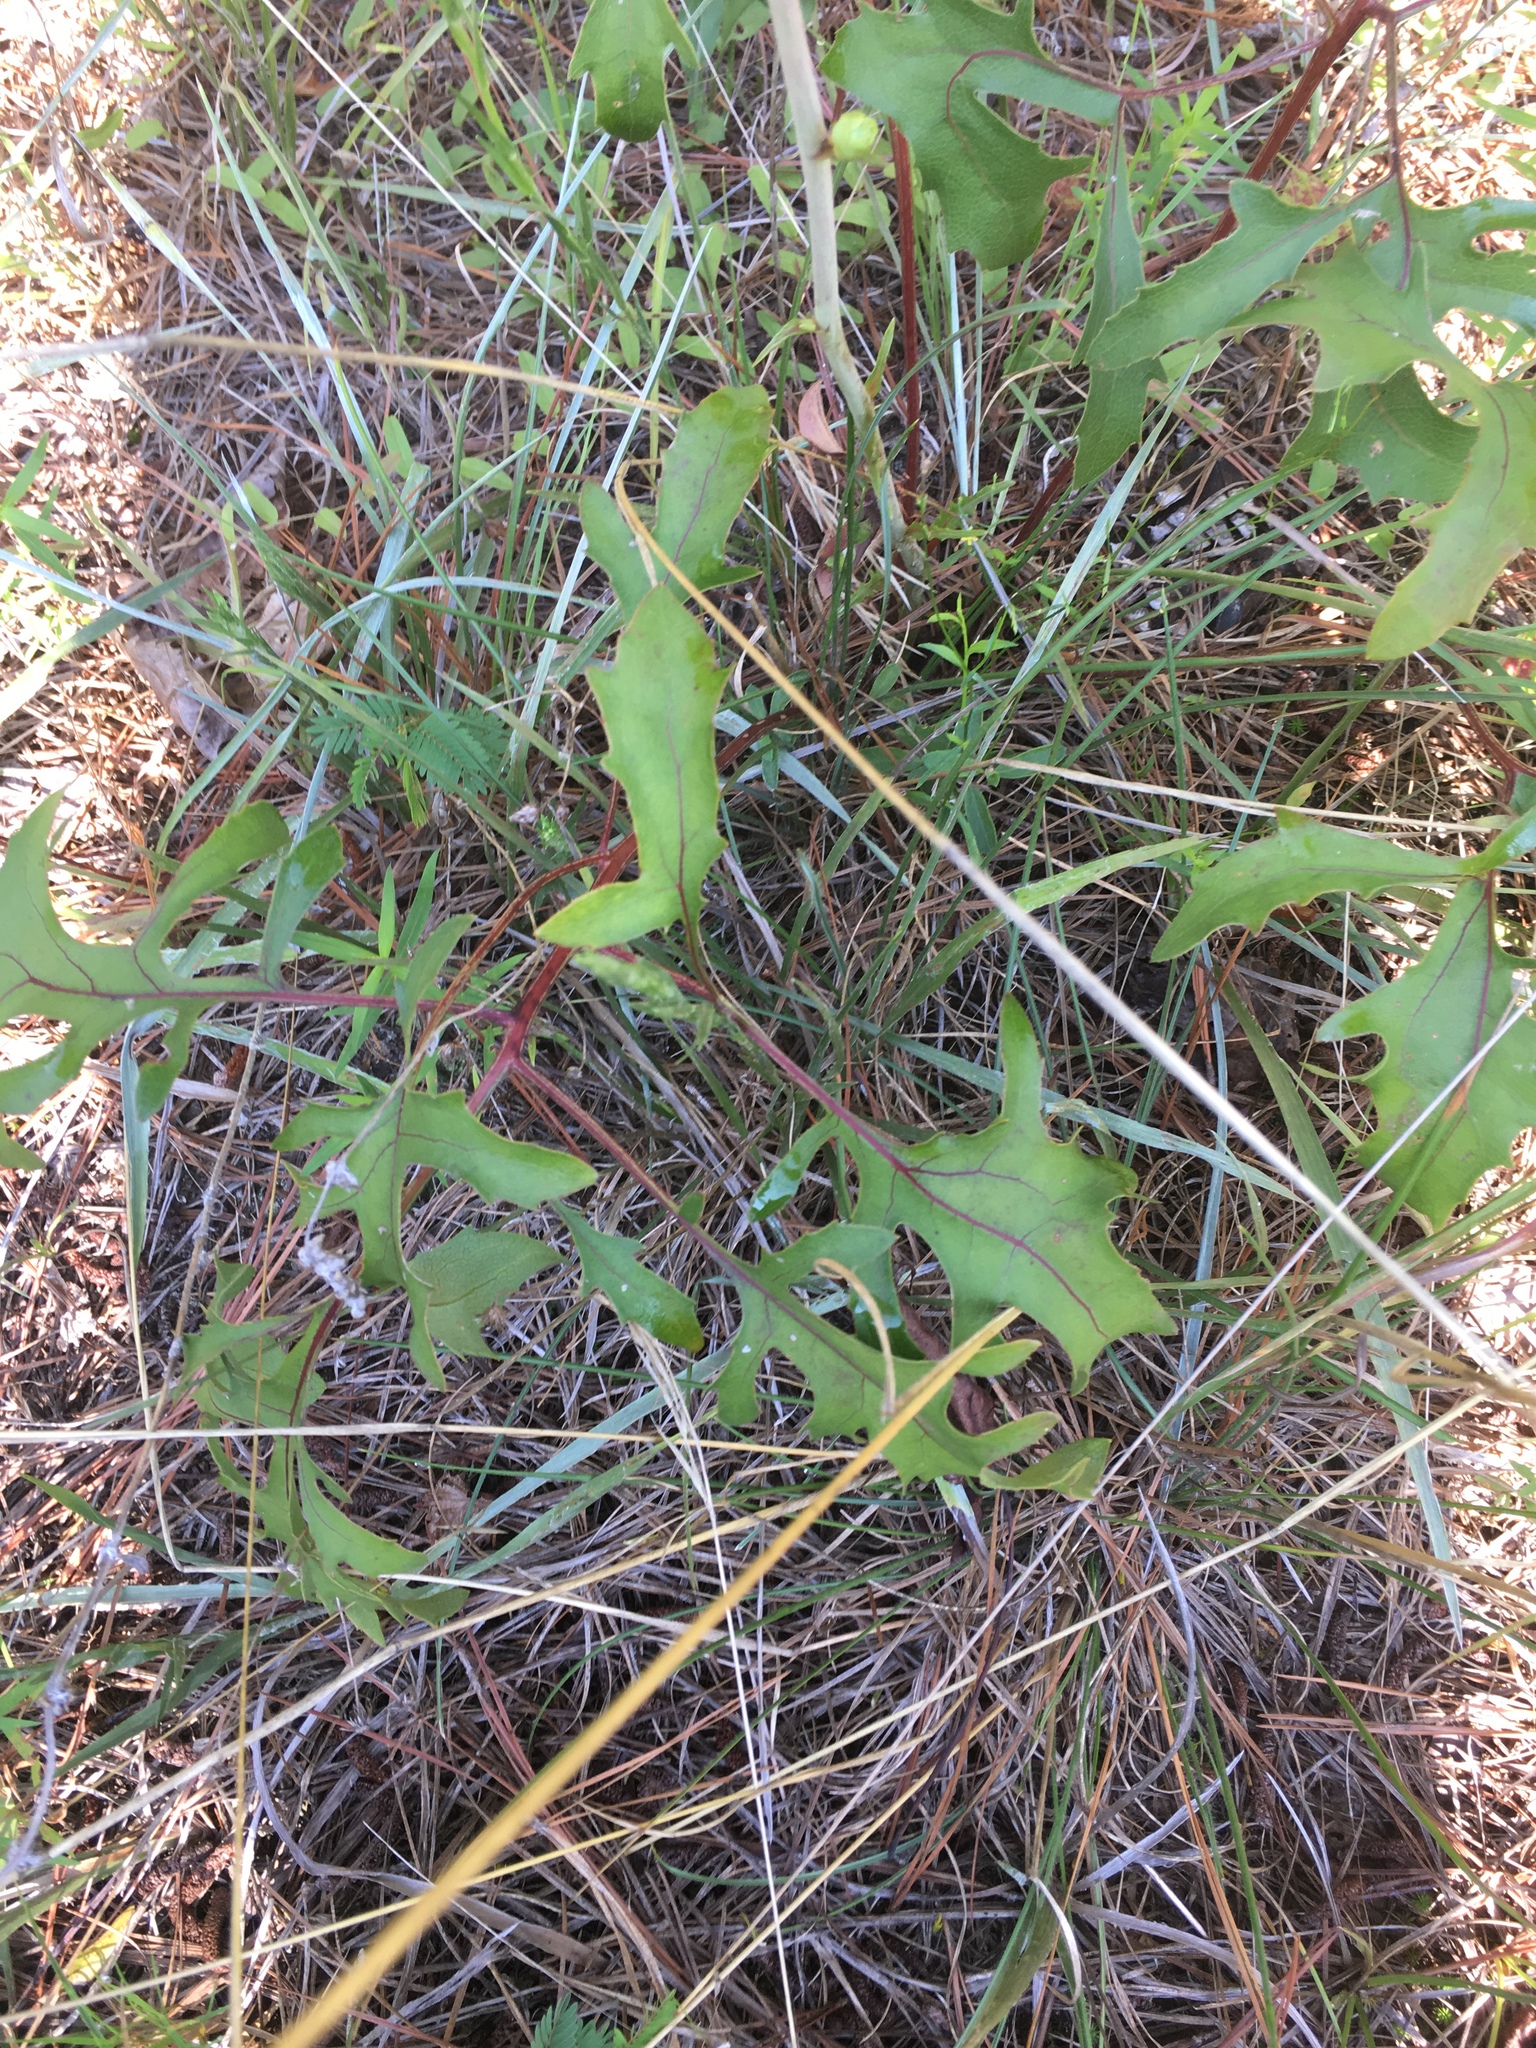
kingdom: Plantae
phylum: Tracheophyta
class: Magnoliopsida
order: Asterales
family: Asteraceae
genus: Silphium
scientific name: Silphium compositum
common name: Lesser basal-leaf rosinweed
